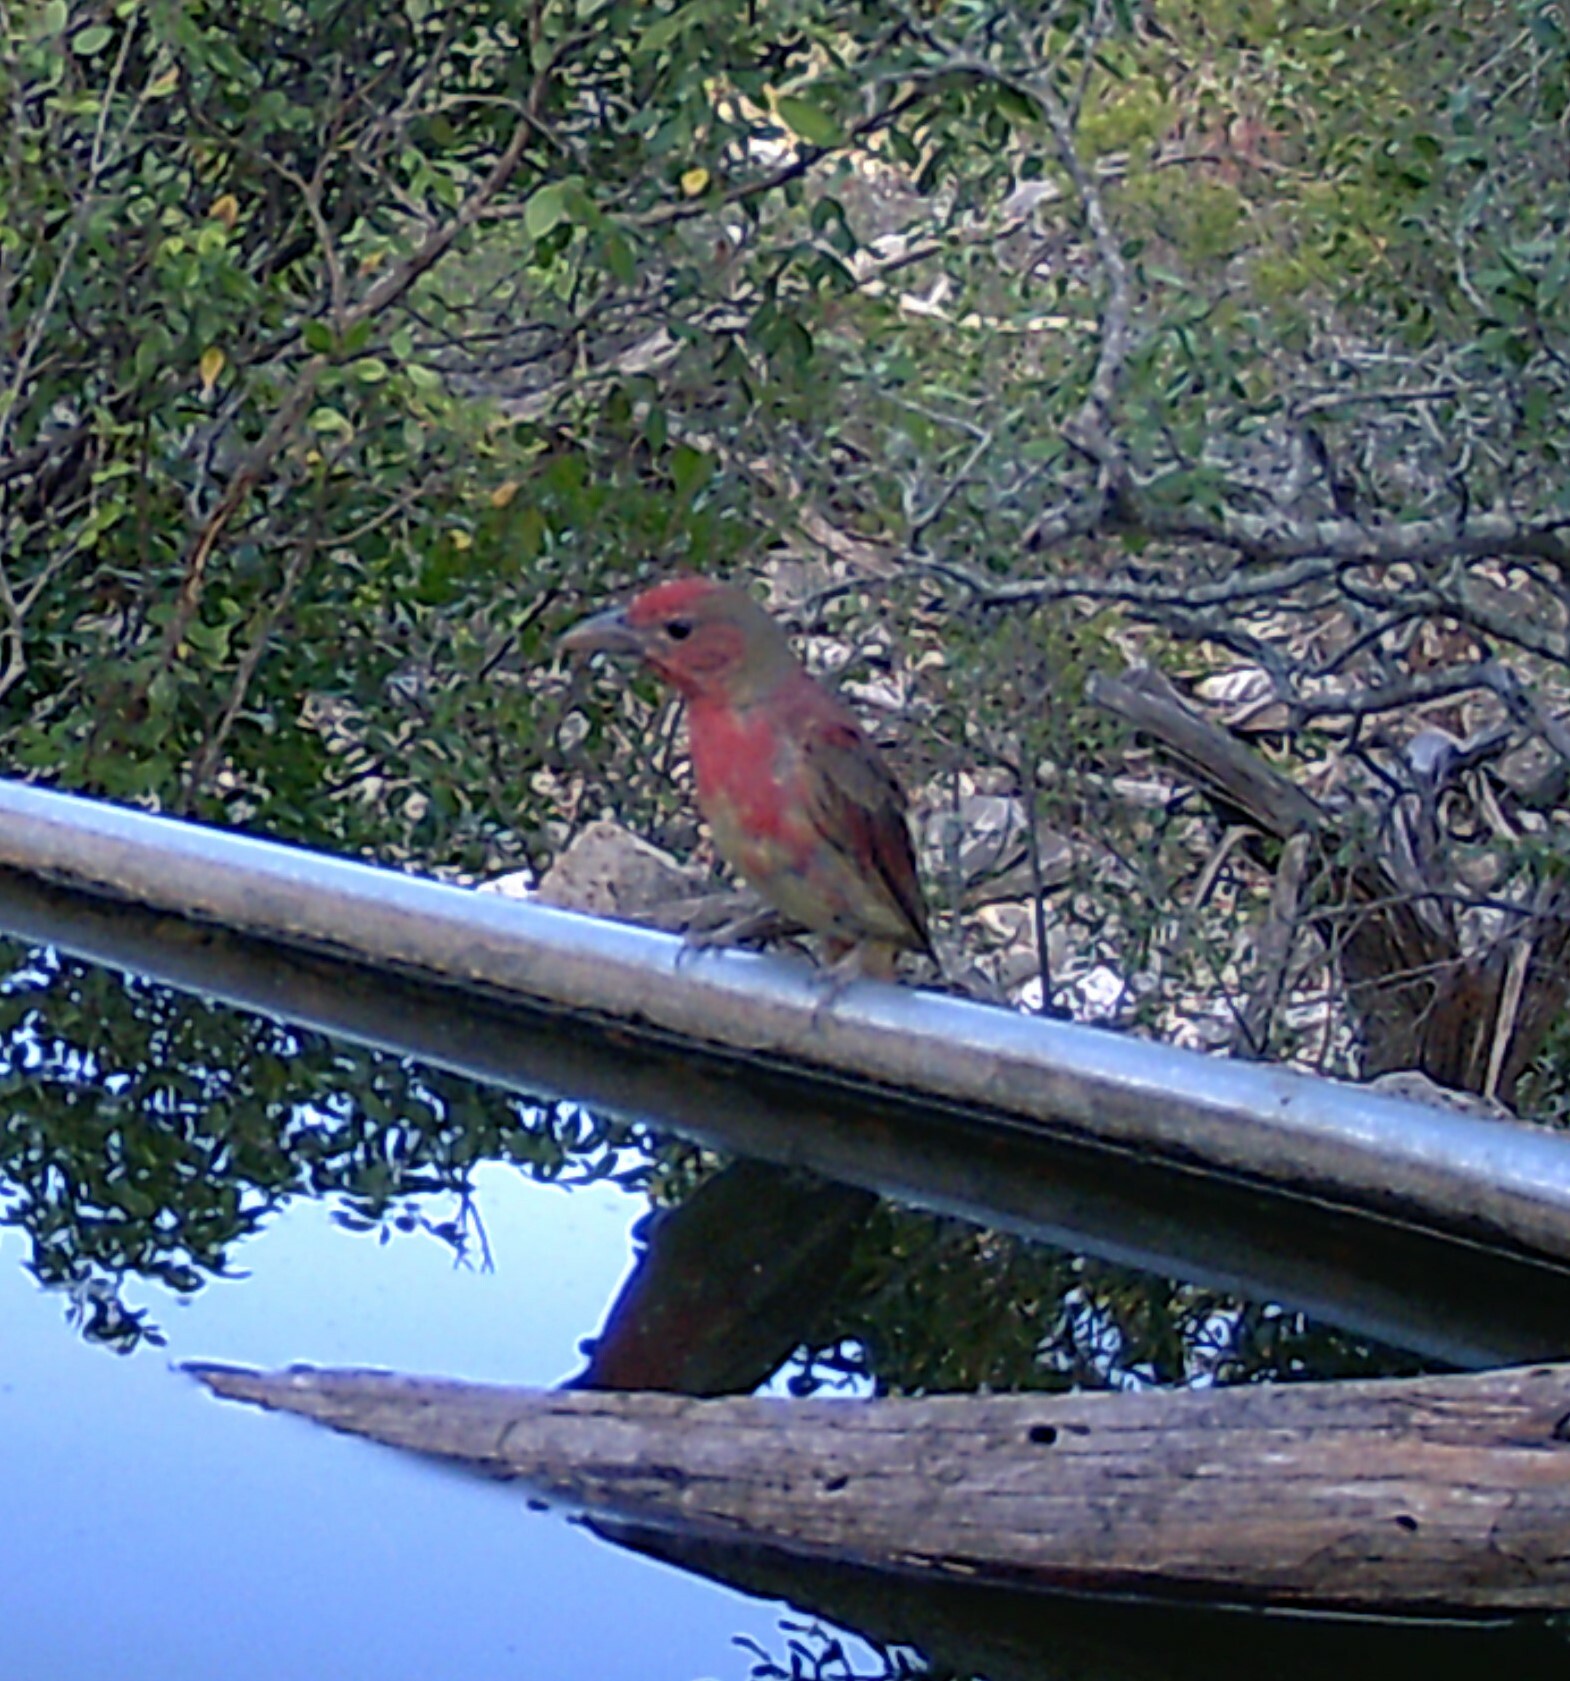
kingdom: Animalia
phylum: Chordata
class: Aves
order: Passeriformes
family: Cardinalidae
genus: Piranga
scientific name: Piranga rubra
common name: Summer tanager
